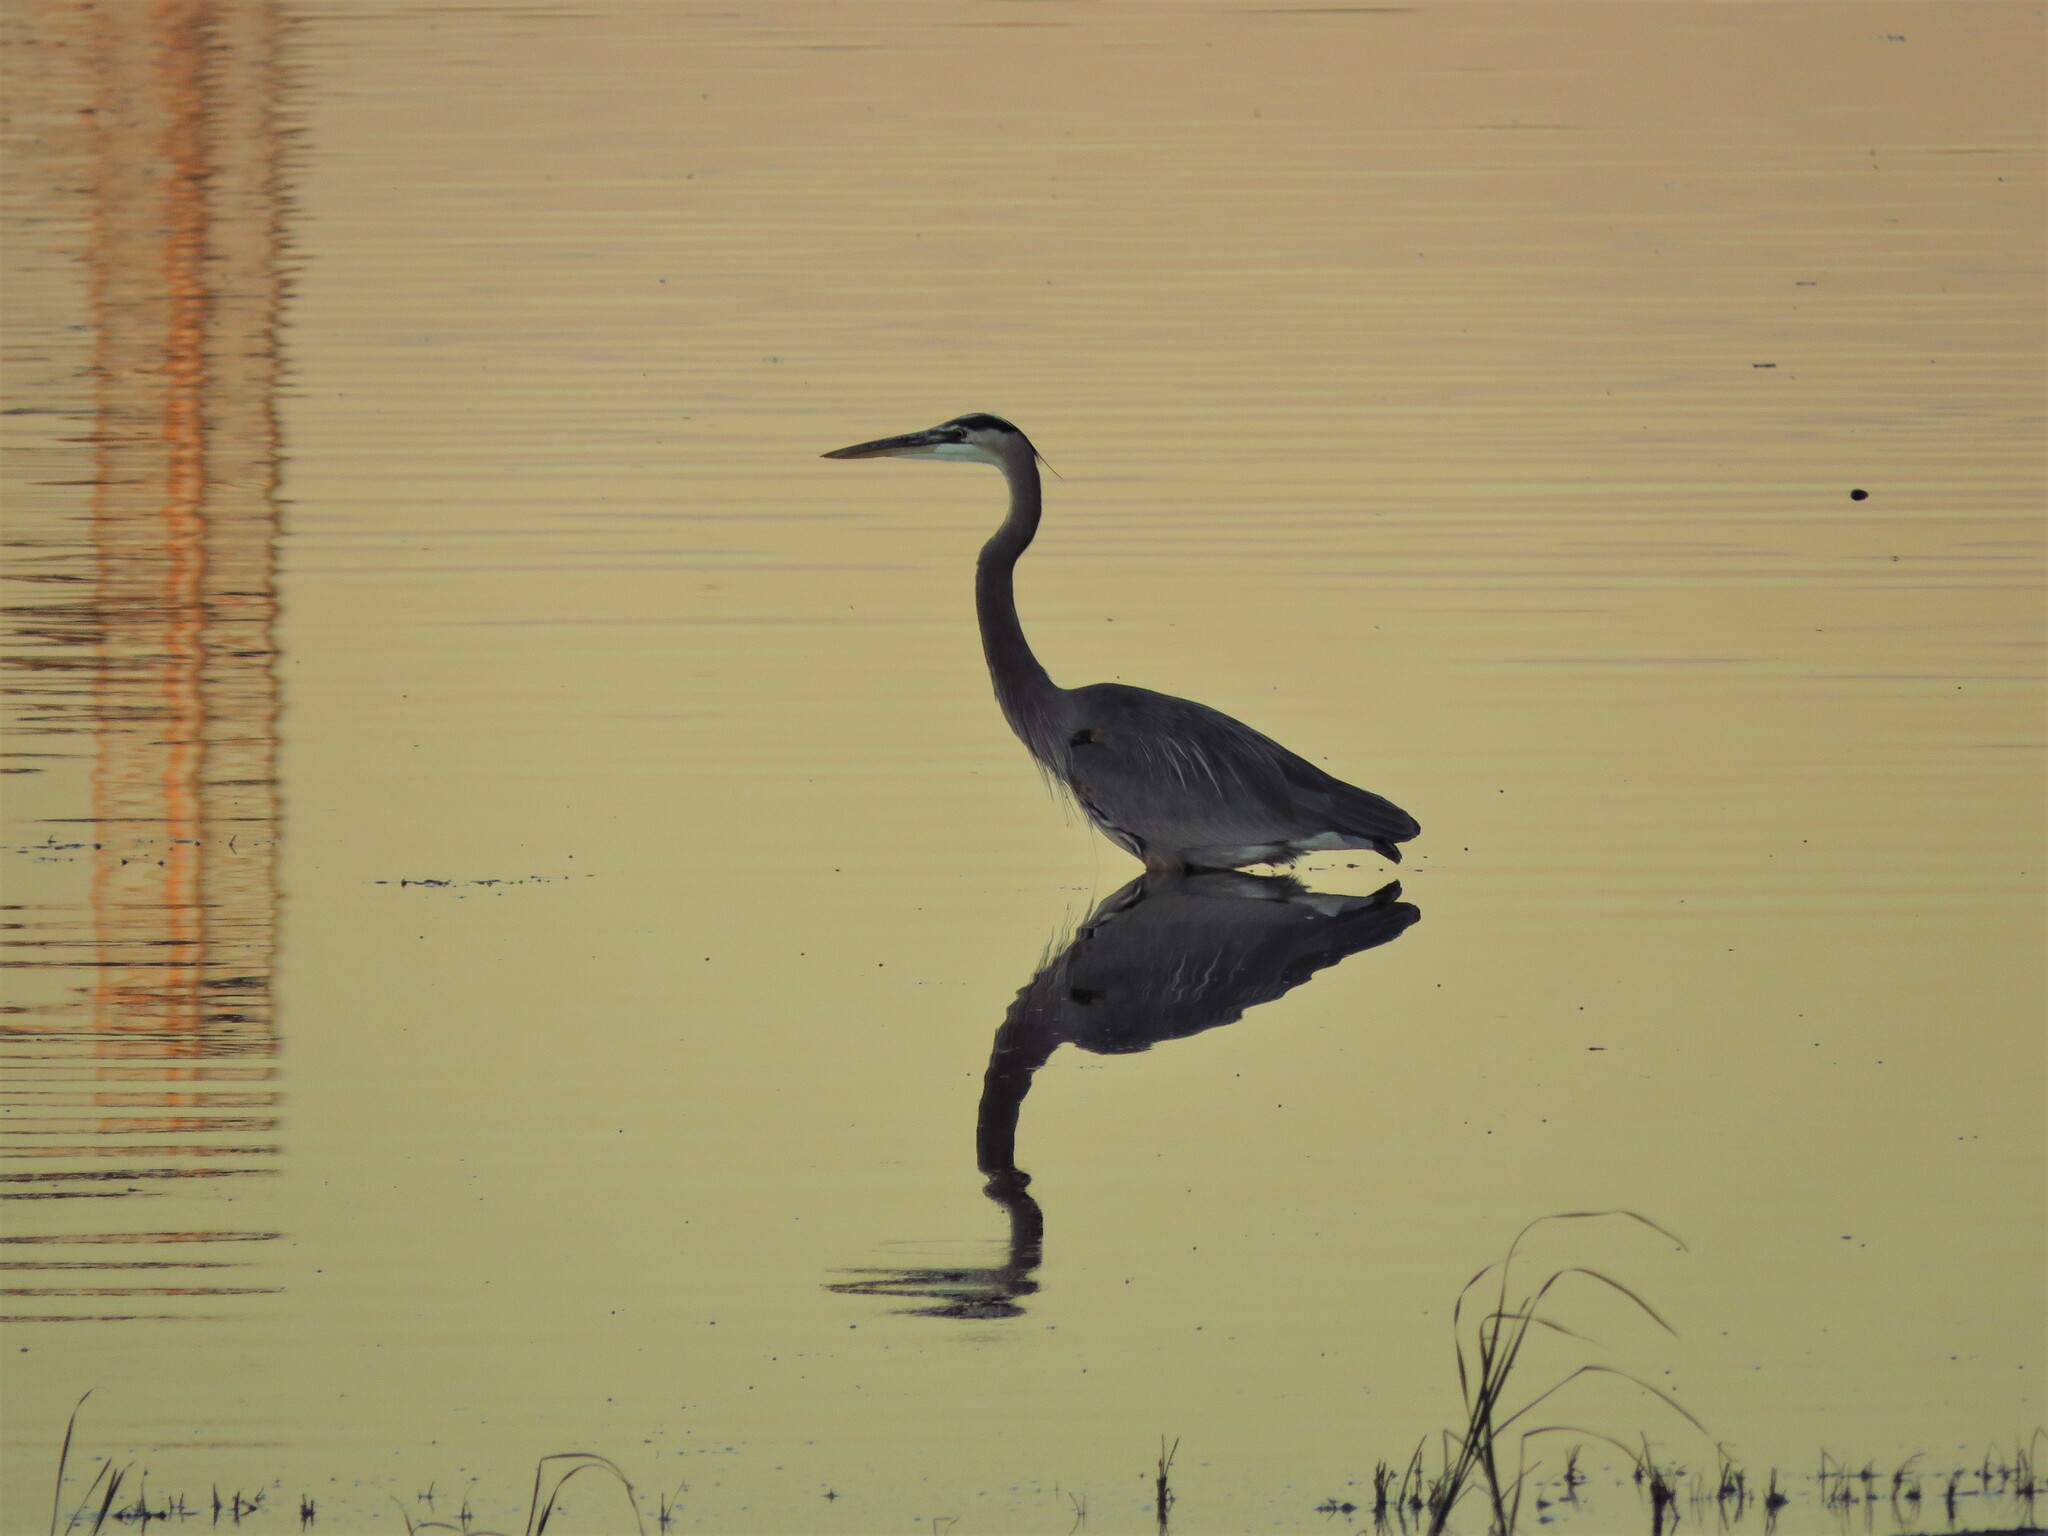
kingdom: Animalia
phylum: Chordata
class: Aves
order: Pelecaniformes
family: Ardeidae
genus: Ardea
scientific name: Ardea herodias
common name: Great blue heron
